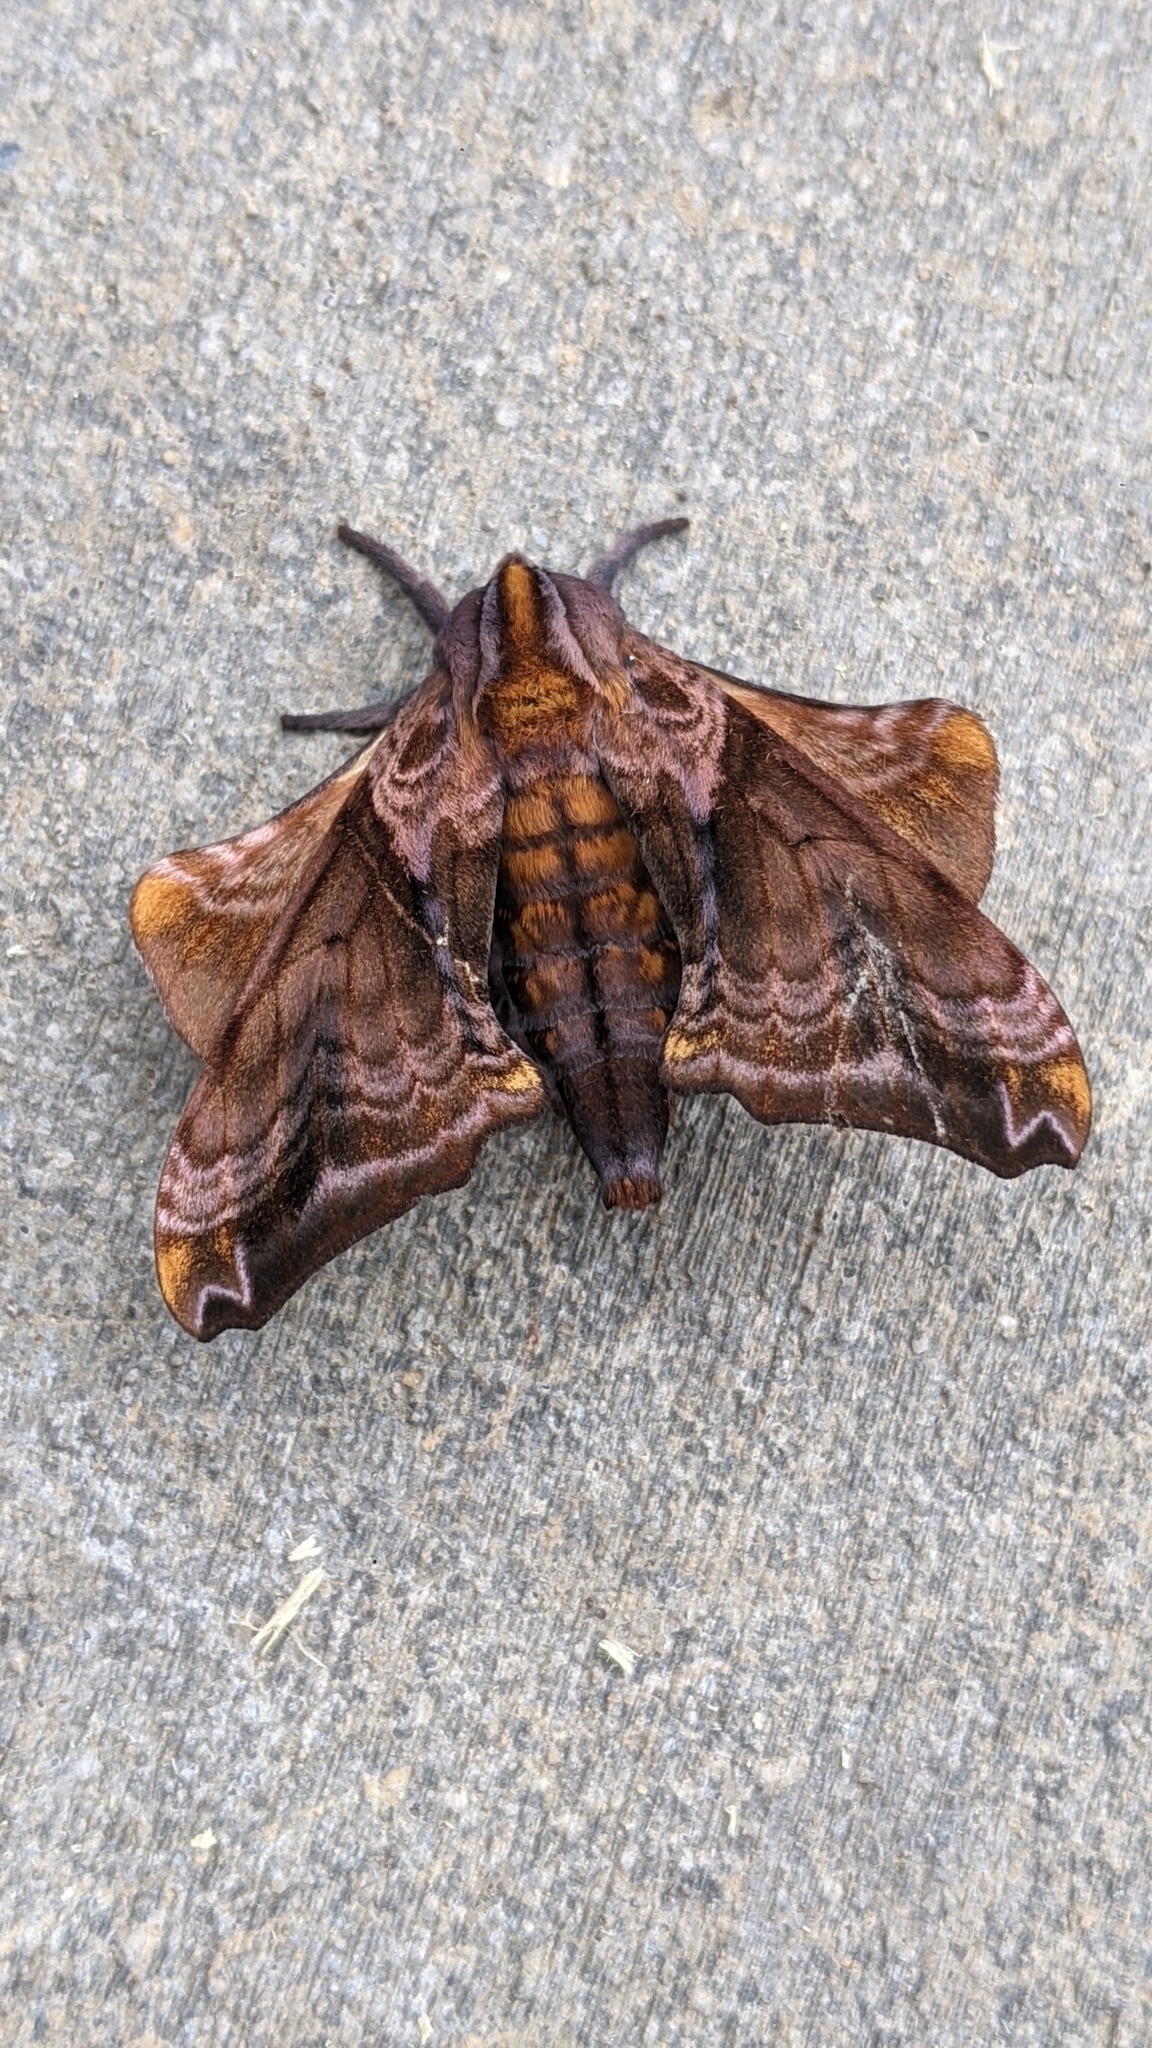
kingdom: Animalia
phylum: Arthropoda
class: Insecta
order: Lepidoptera
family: Sphingidae
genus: Paonias
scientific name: Paonias myops
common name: Small-eyed sphinx
